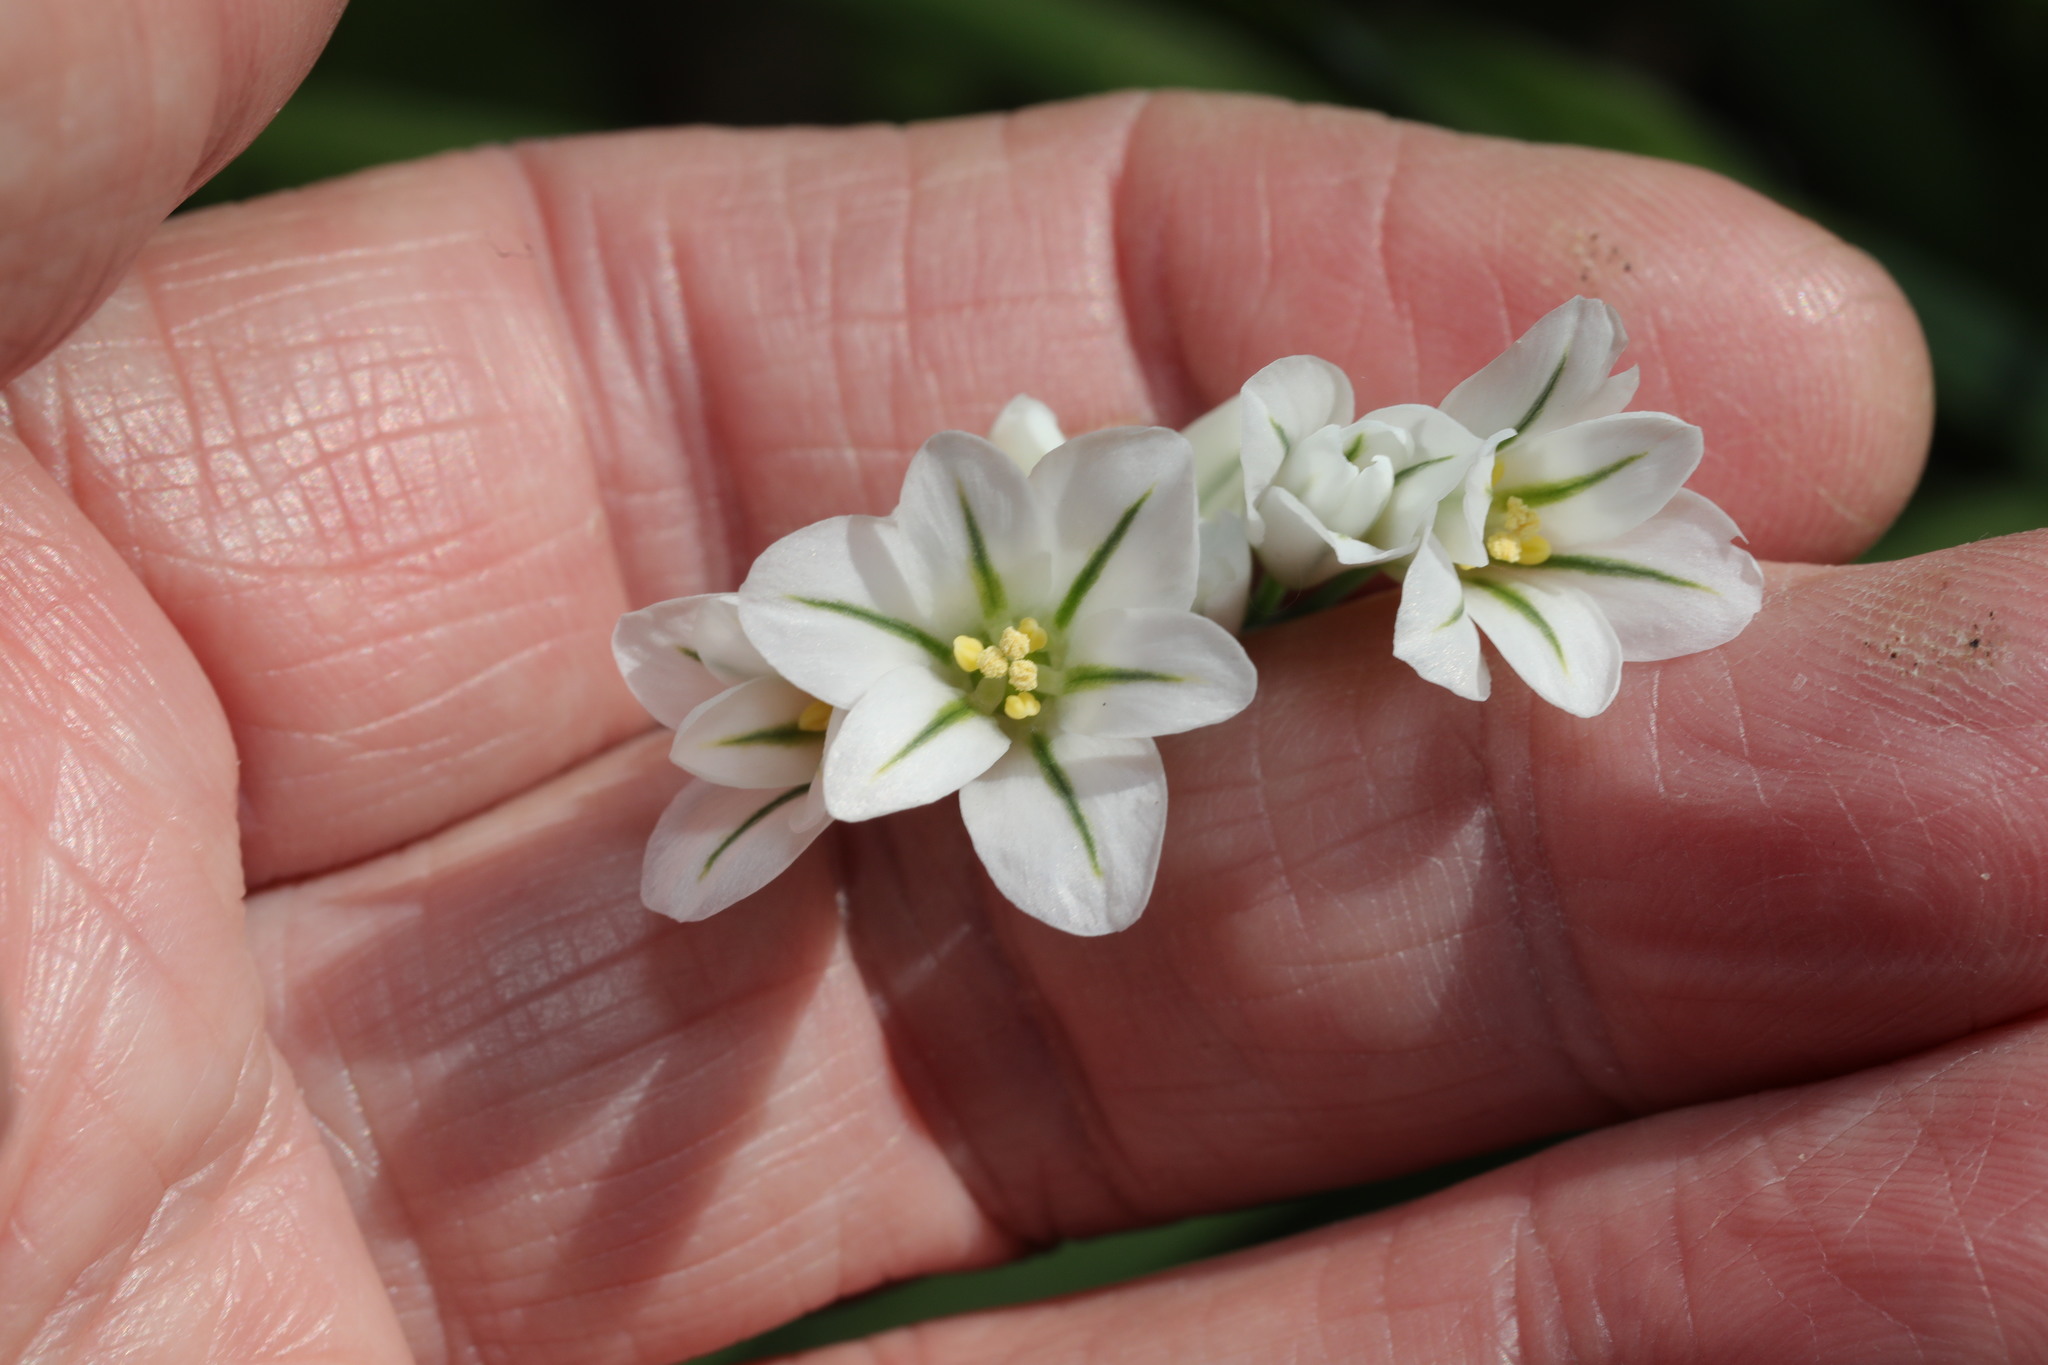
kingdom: Plantae
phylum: Tracheophyta
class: Liliopsida
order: Asparagales
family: Amaryllidaceae
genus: Allium
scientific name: Allium triquetrum
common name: Three-cornered garlic
